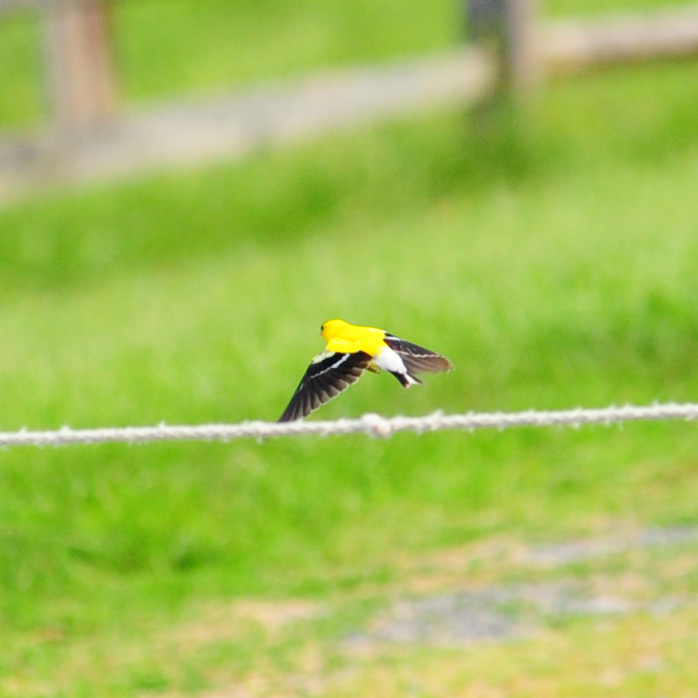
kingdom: Animalia
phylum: Chordata
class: Aves
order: Passeriformes
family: Fringillidae
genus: Spinus
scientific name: Spinus tristis
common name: American goldfinch
